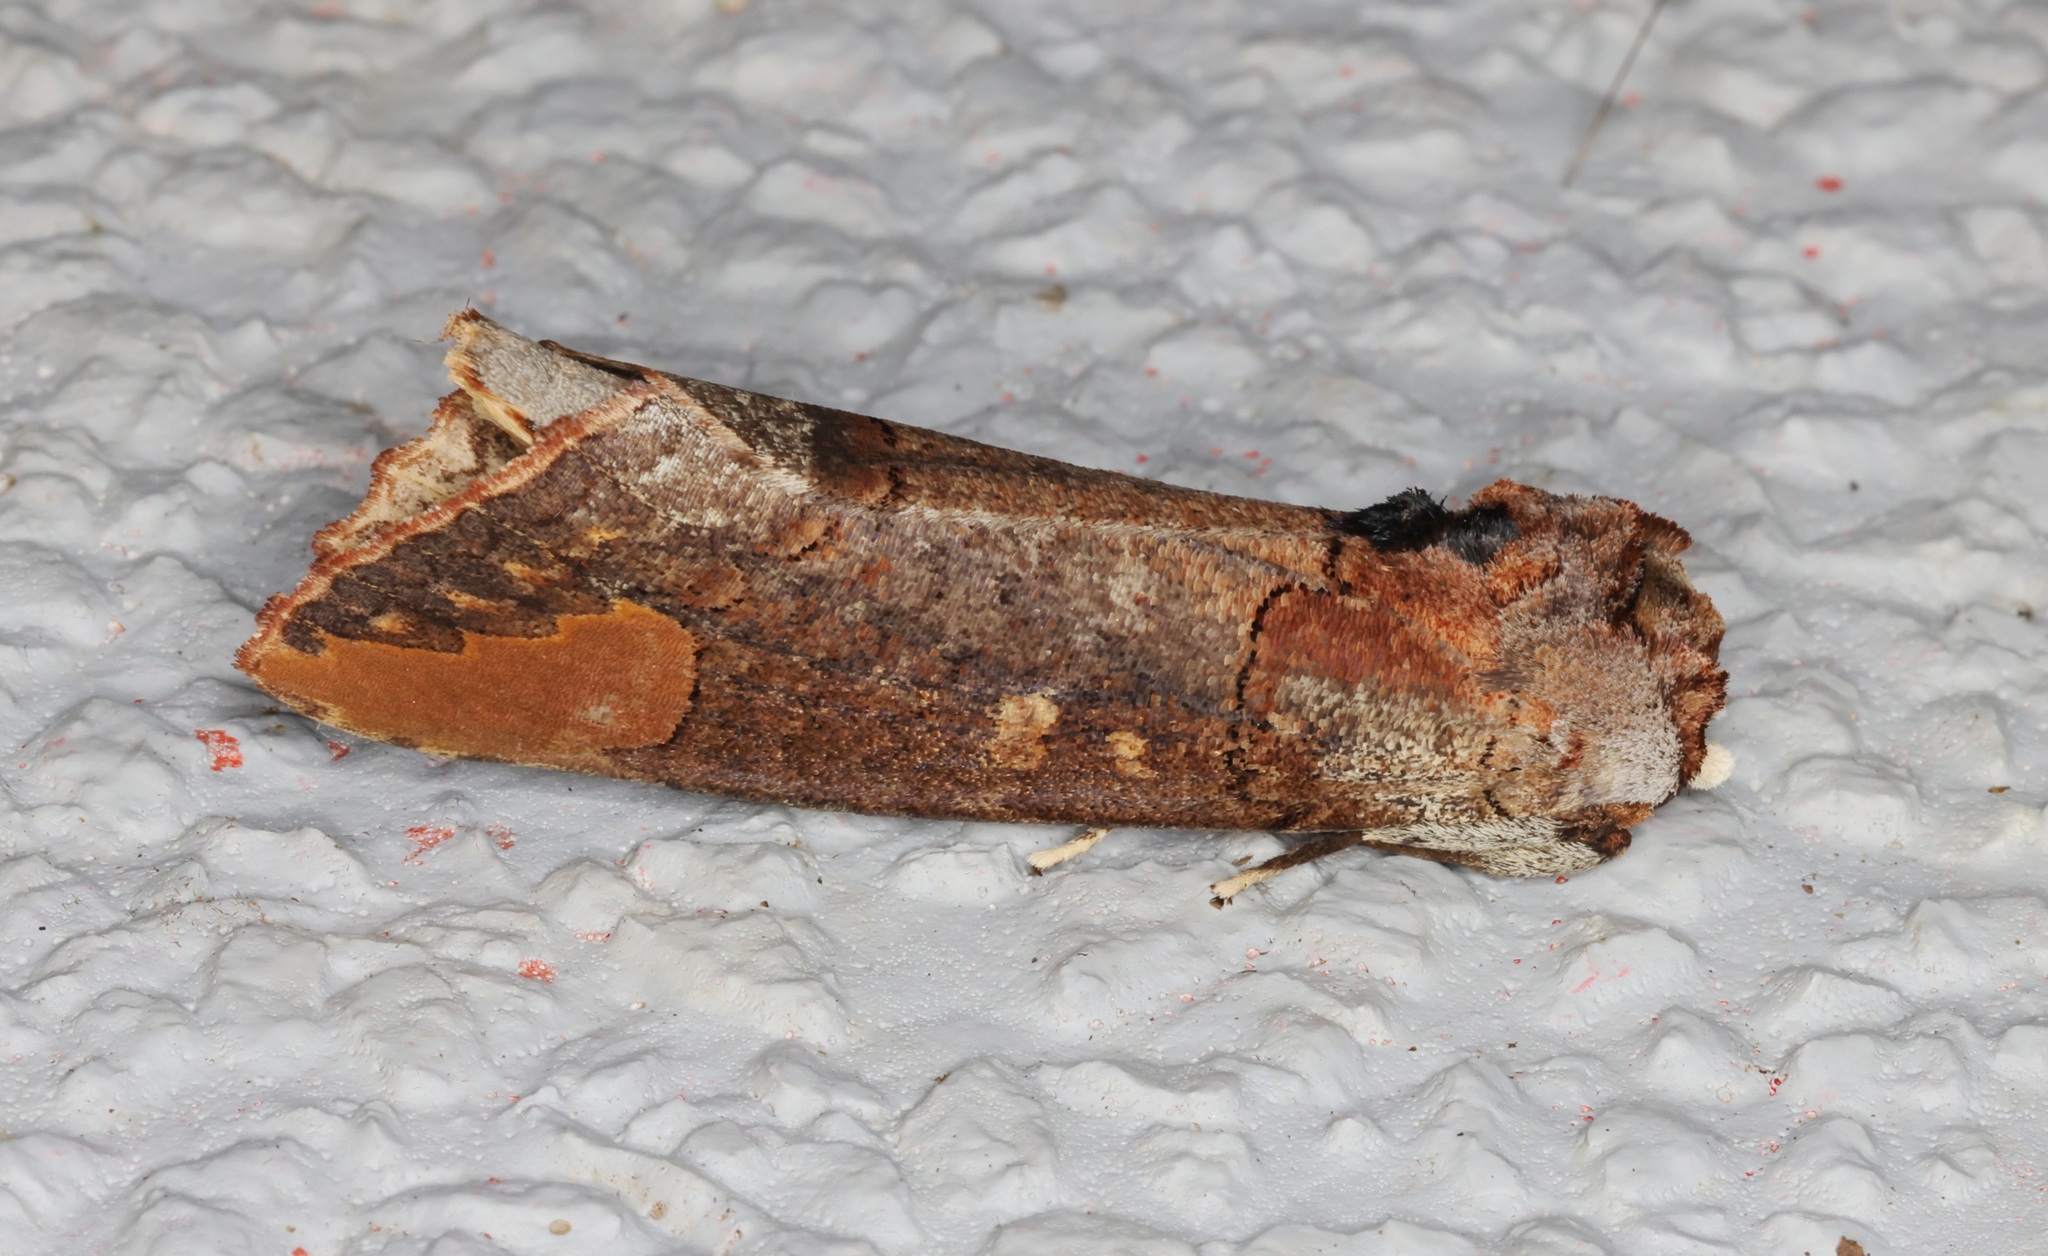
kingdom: Animalia
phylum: Arthropoda
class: Insecta
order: Lepidoptera
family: Notodontidae
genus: Phalera
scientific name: Phalera grotei
